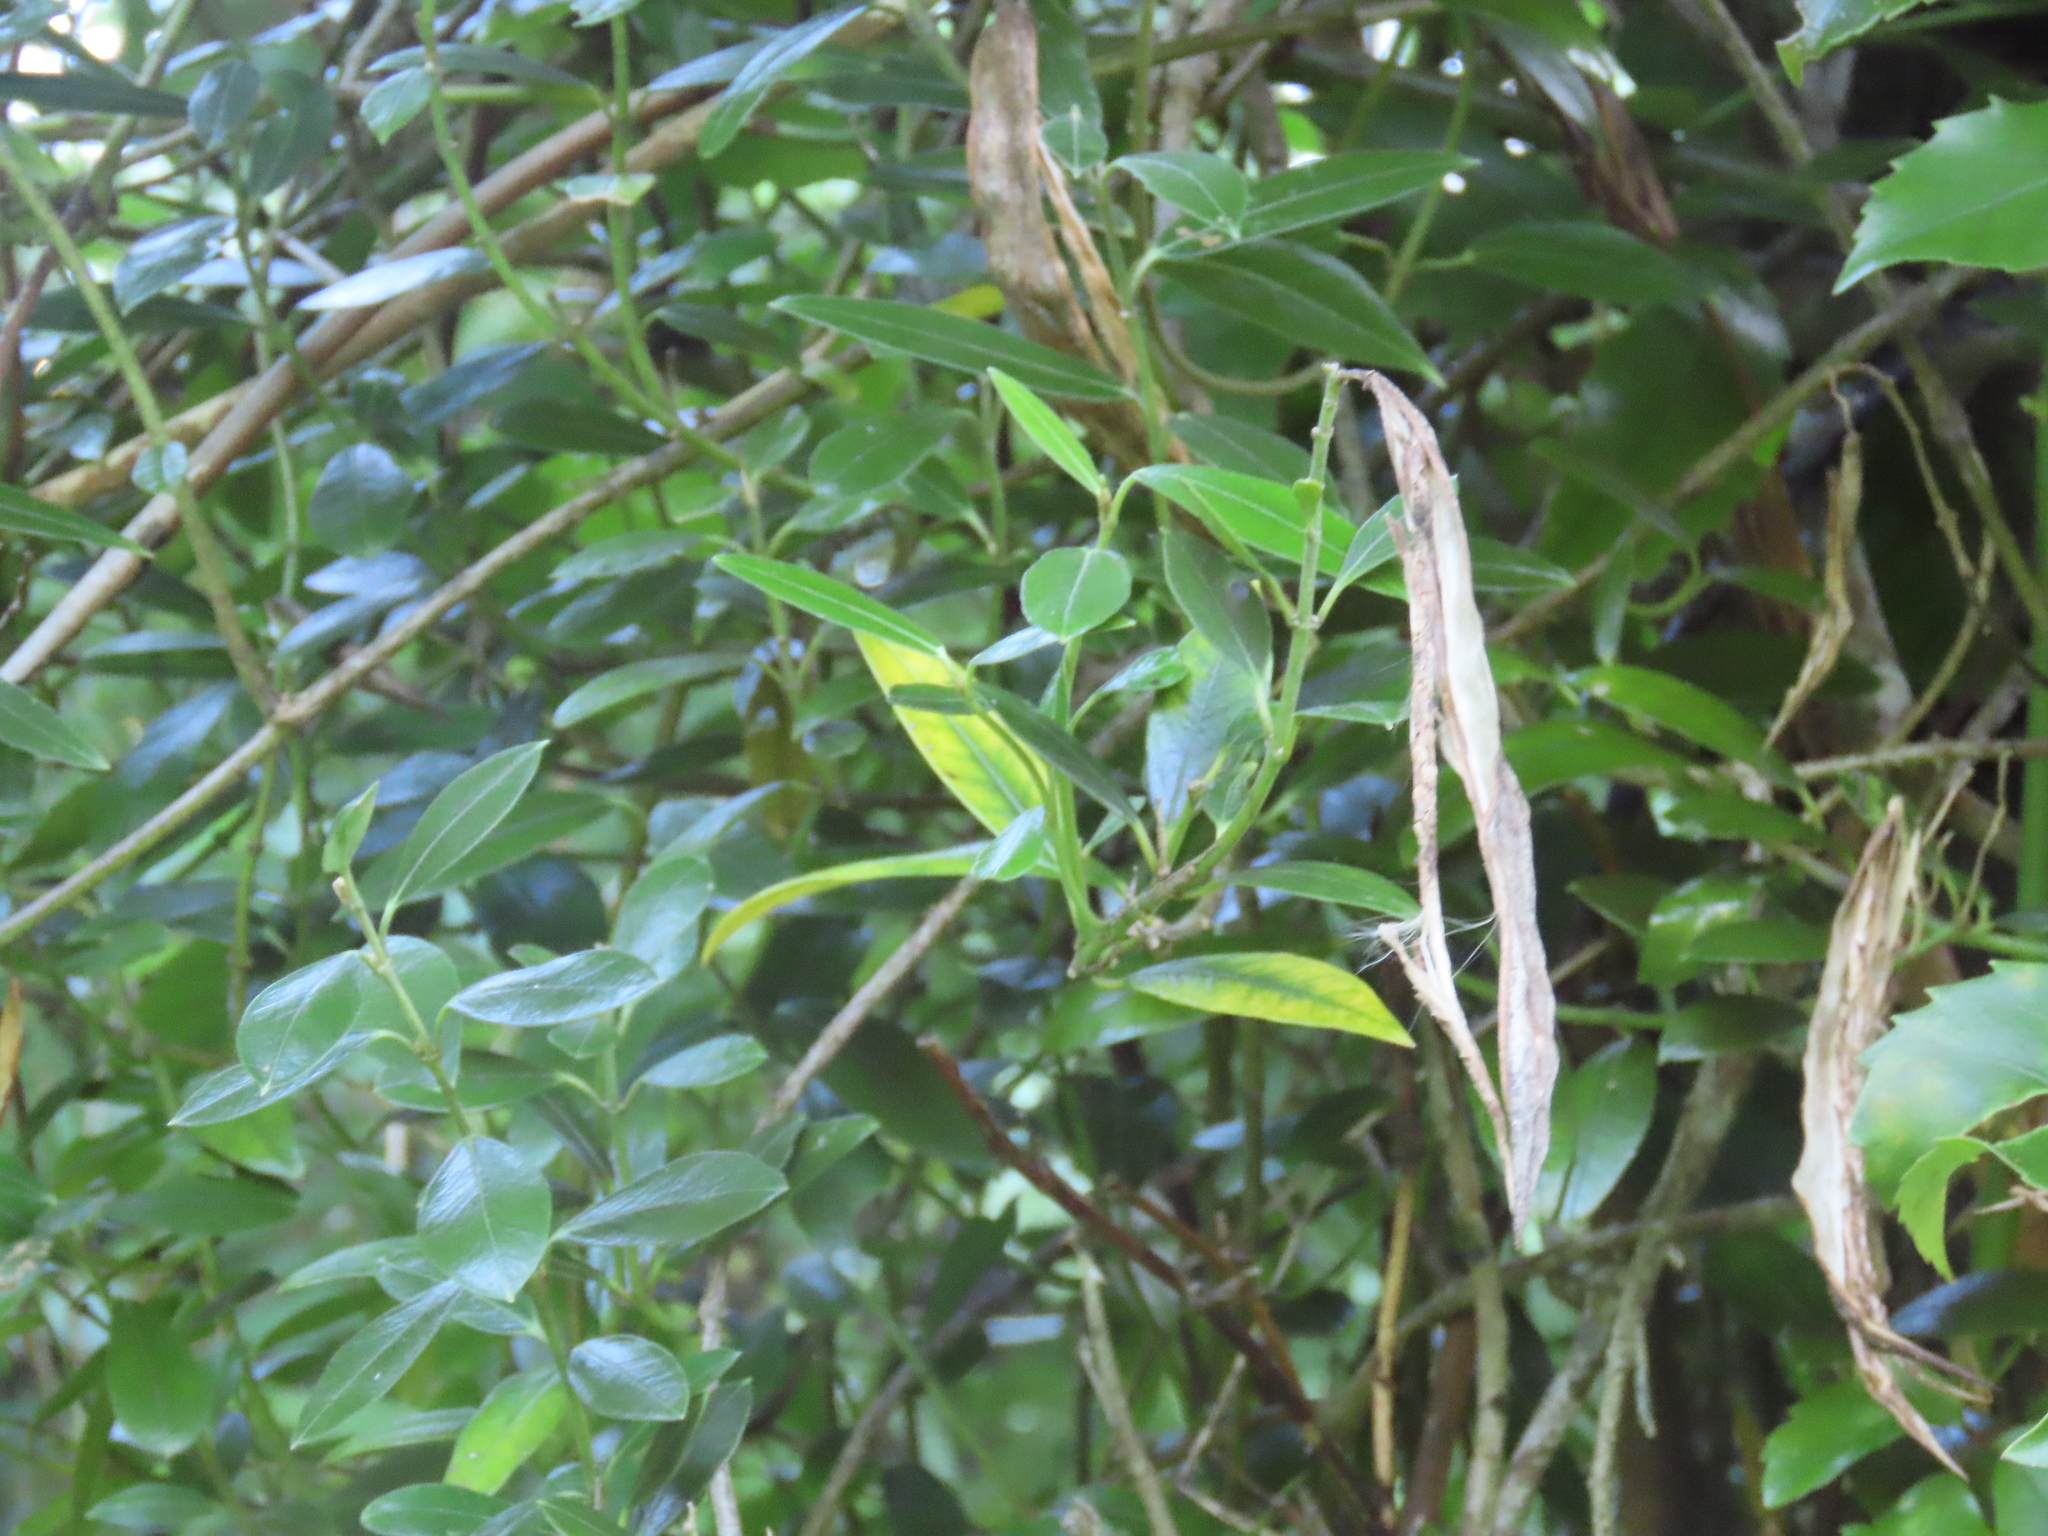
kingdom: Plantae
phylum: Tracheophyta
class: Magnoliopsida
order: Gentianales
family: Apocynaceae
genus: Parsonsia
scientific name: Parsonsia heterophylla
